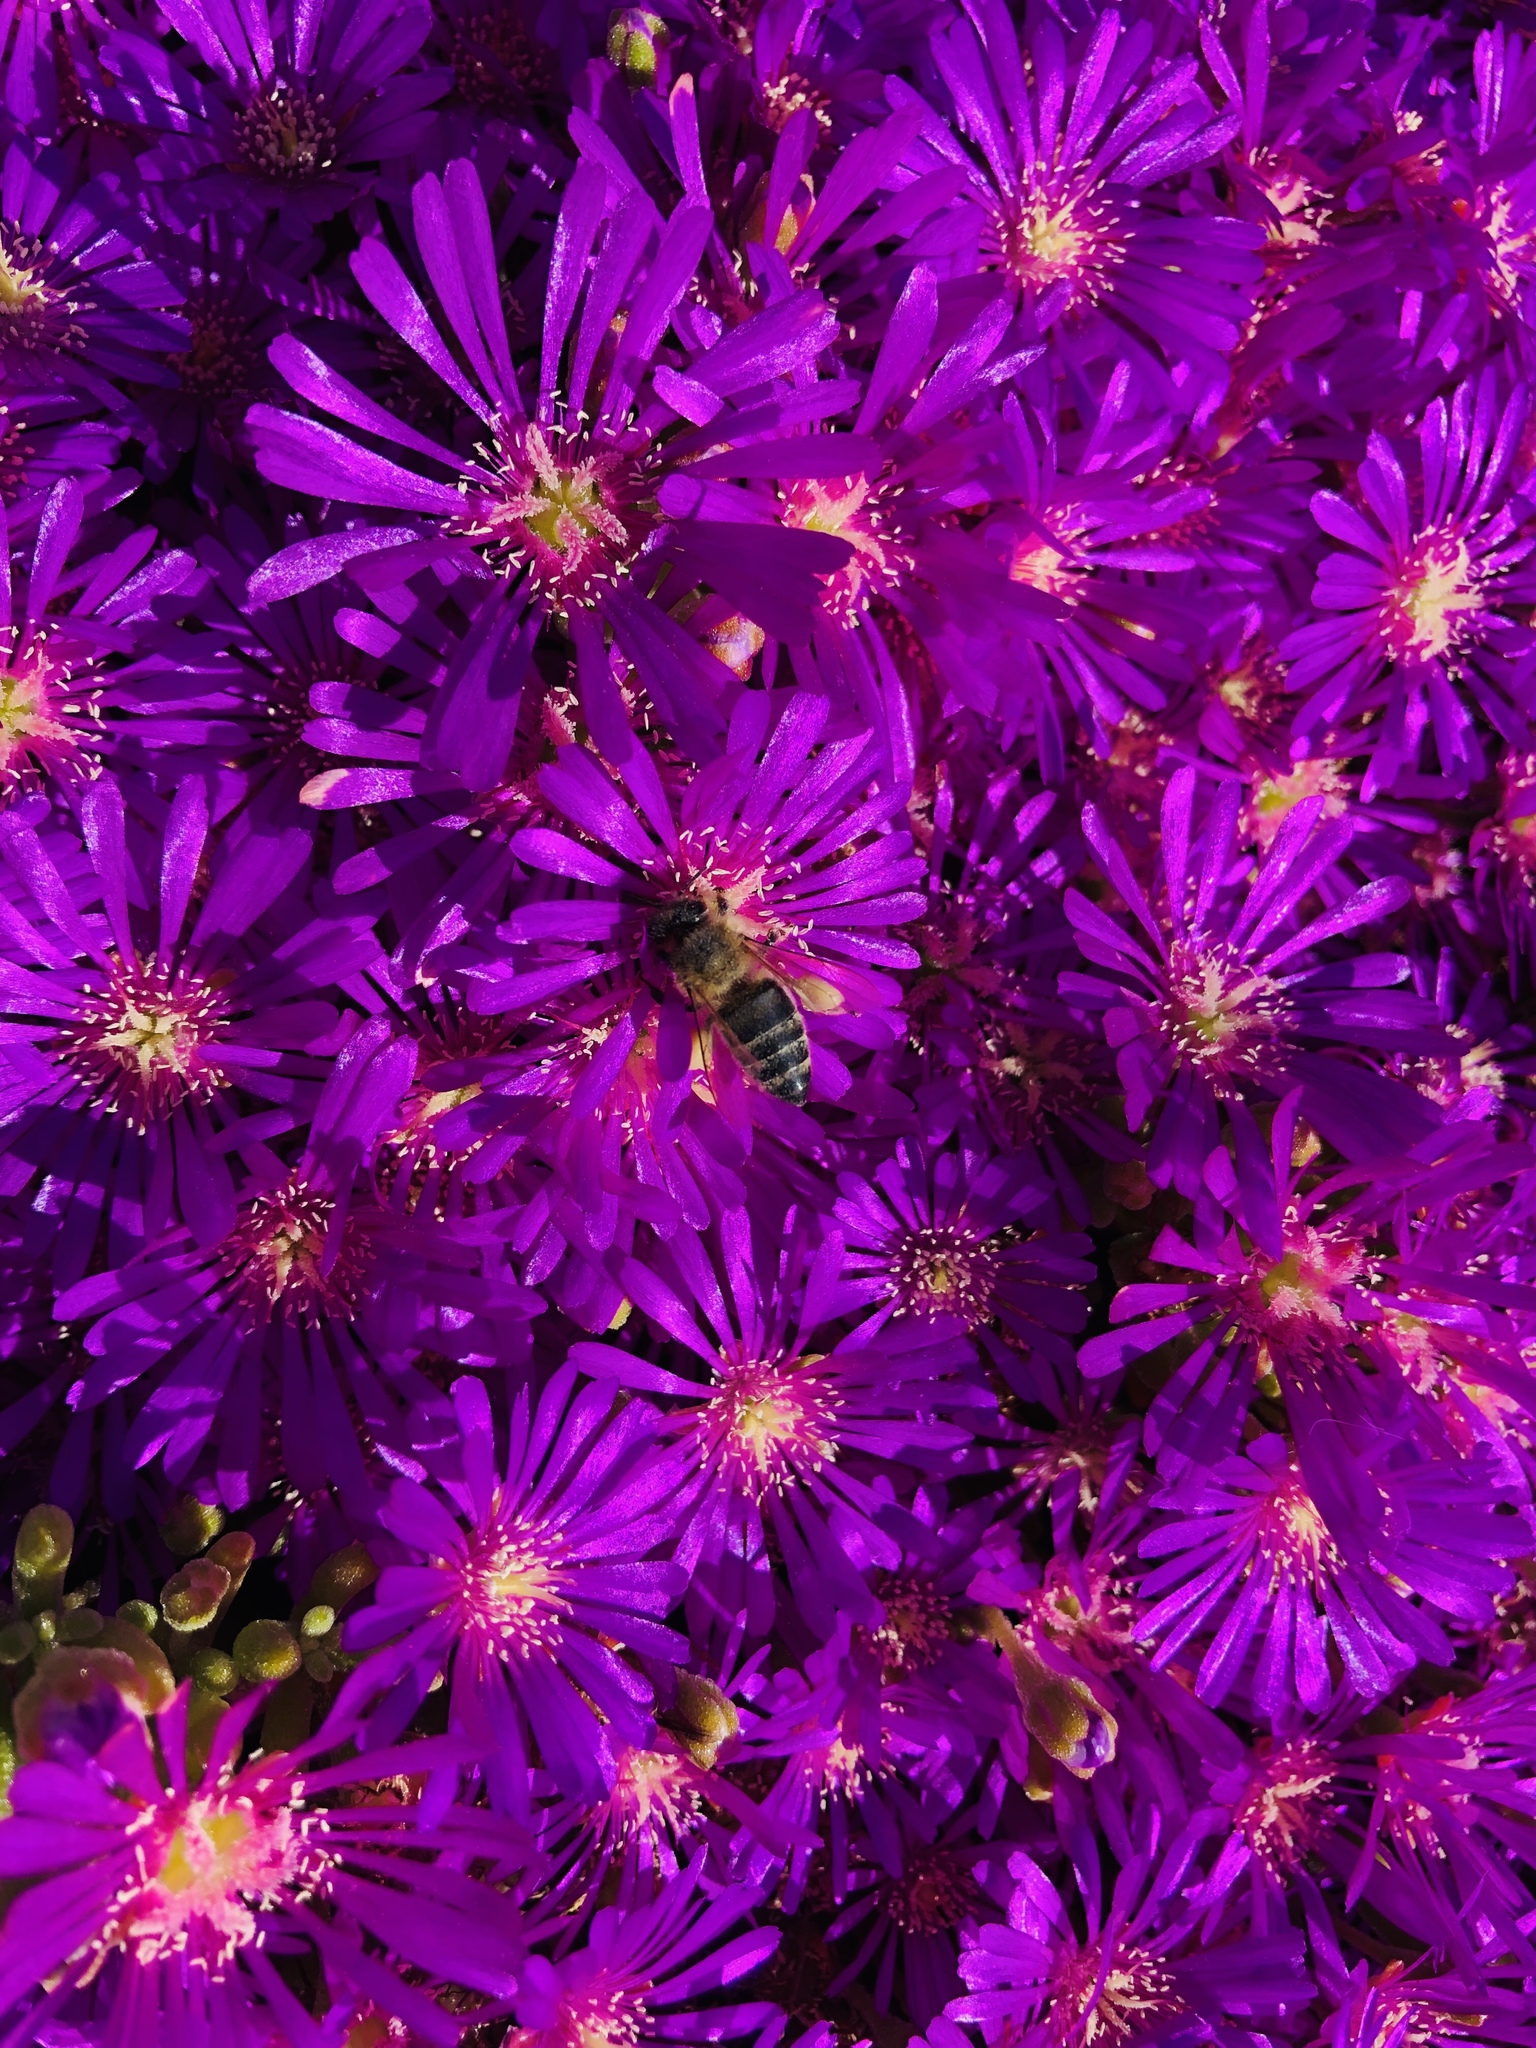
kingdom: Animalia
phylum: Arthropoda
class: Insecta
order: Hymenoptera
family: Apidae
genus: Apis
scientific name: Apis mellifera
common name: Honey bee
